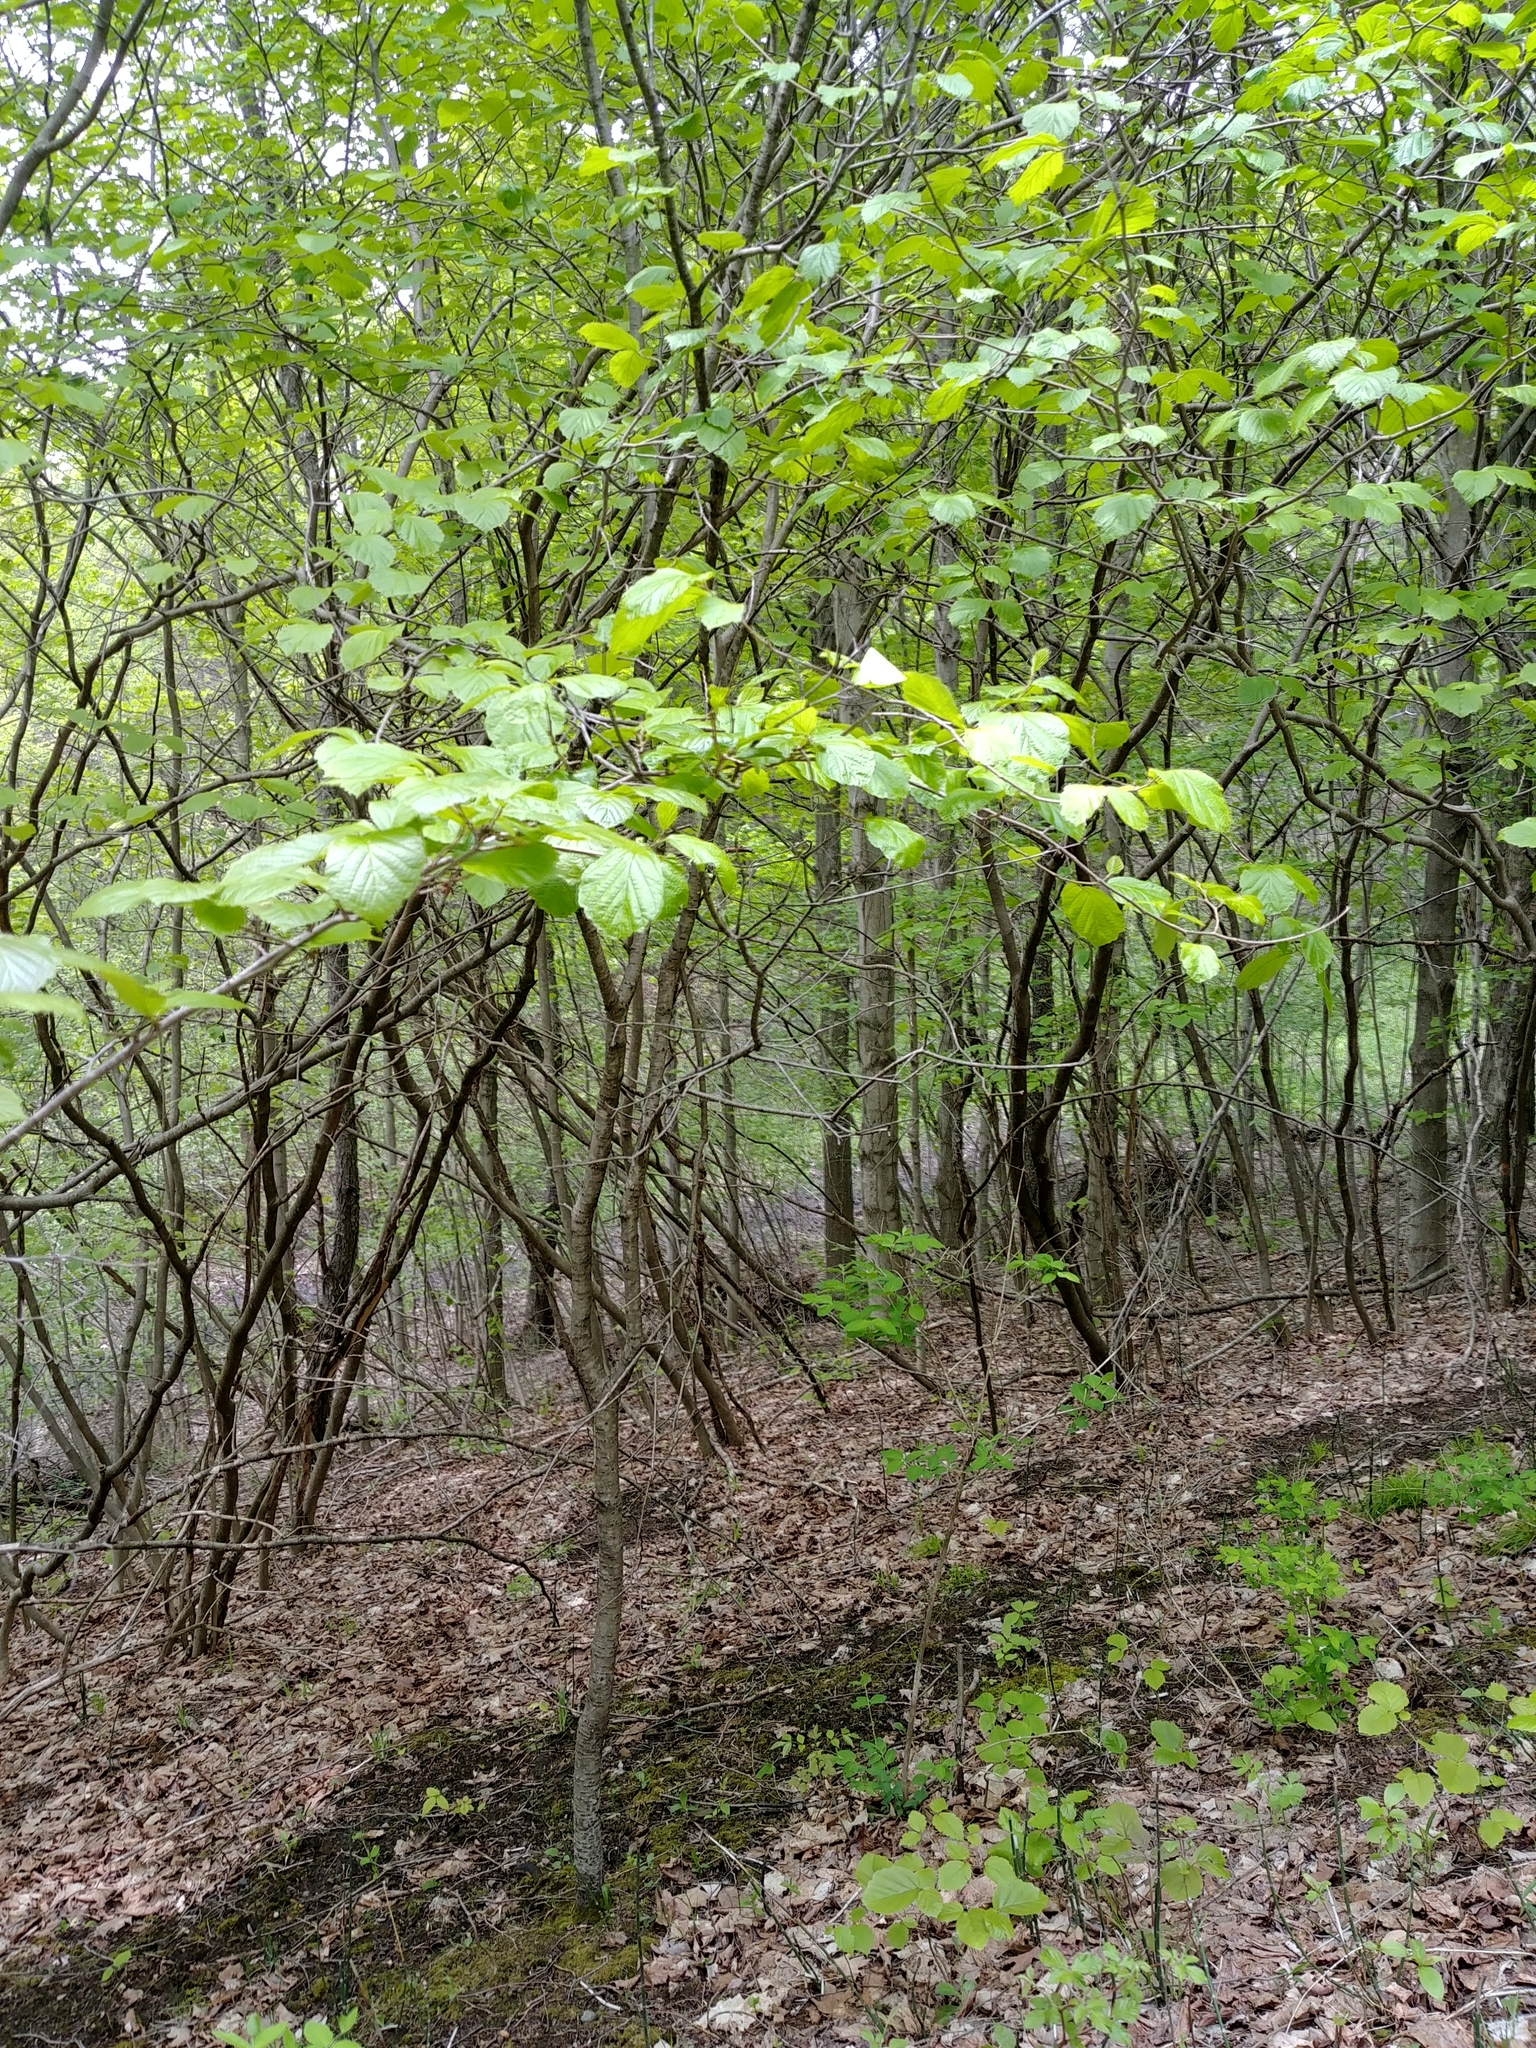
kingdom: Plantae
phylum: Tracheophyta
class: Magnoliopsida
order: Saxifragales
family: Hamamelidaceae
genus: Hamamelis
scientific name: Hamamelis virginiana
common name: Witch-hazel
